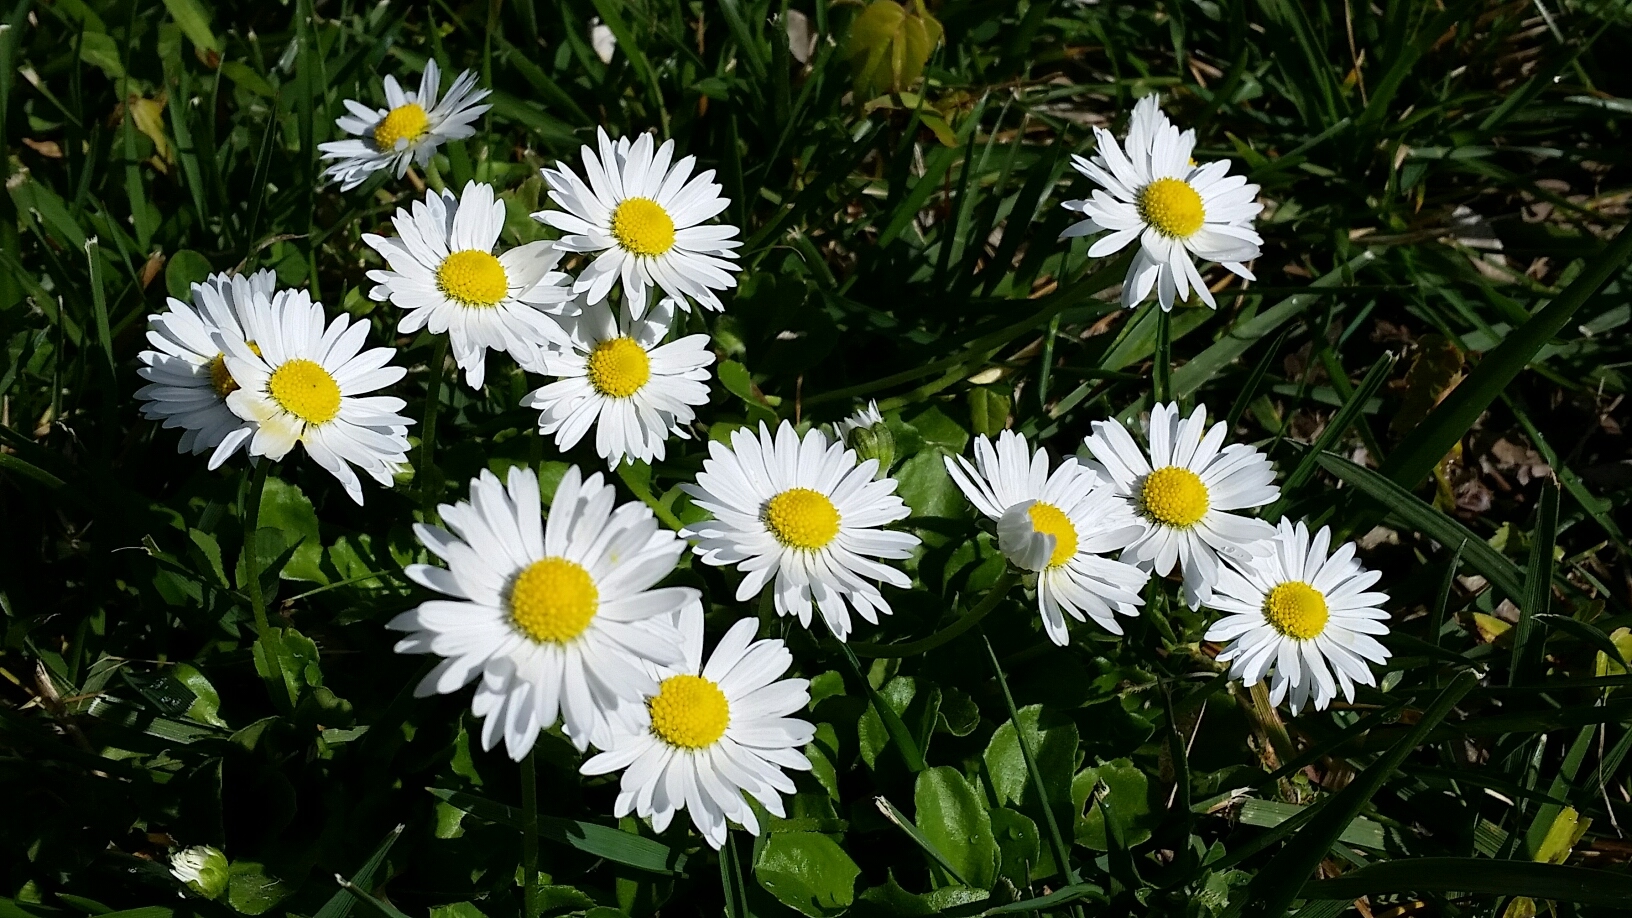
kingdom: Plantae
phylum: Tracheophyta
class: Magnoliopsida
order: Asterales
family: Asteraceae
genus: Bellis
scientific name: Bellis perennis
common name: Lawndaisy
